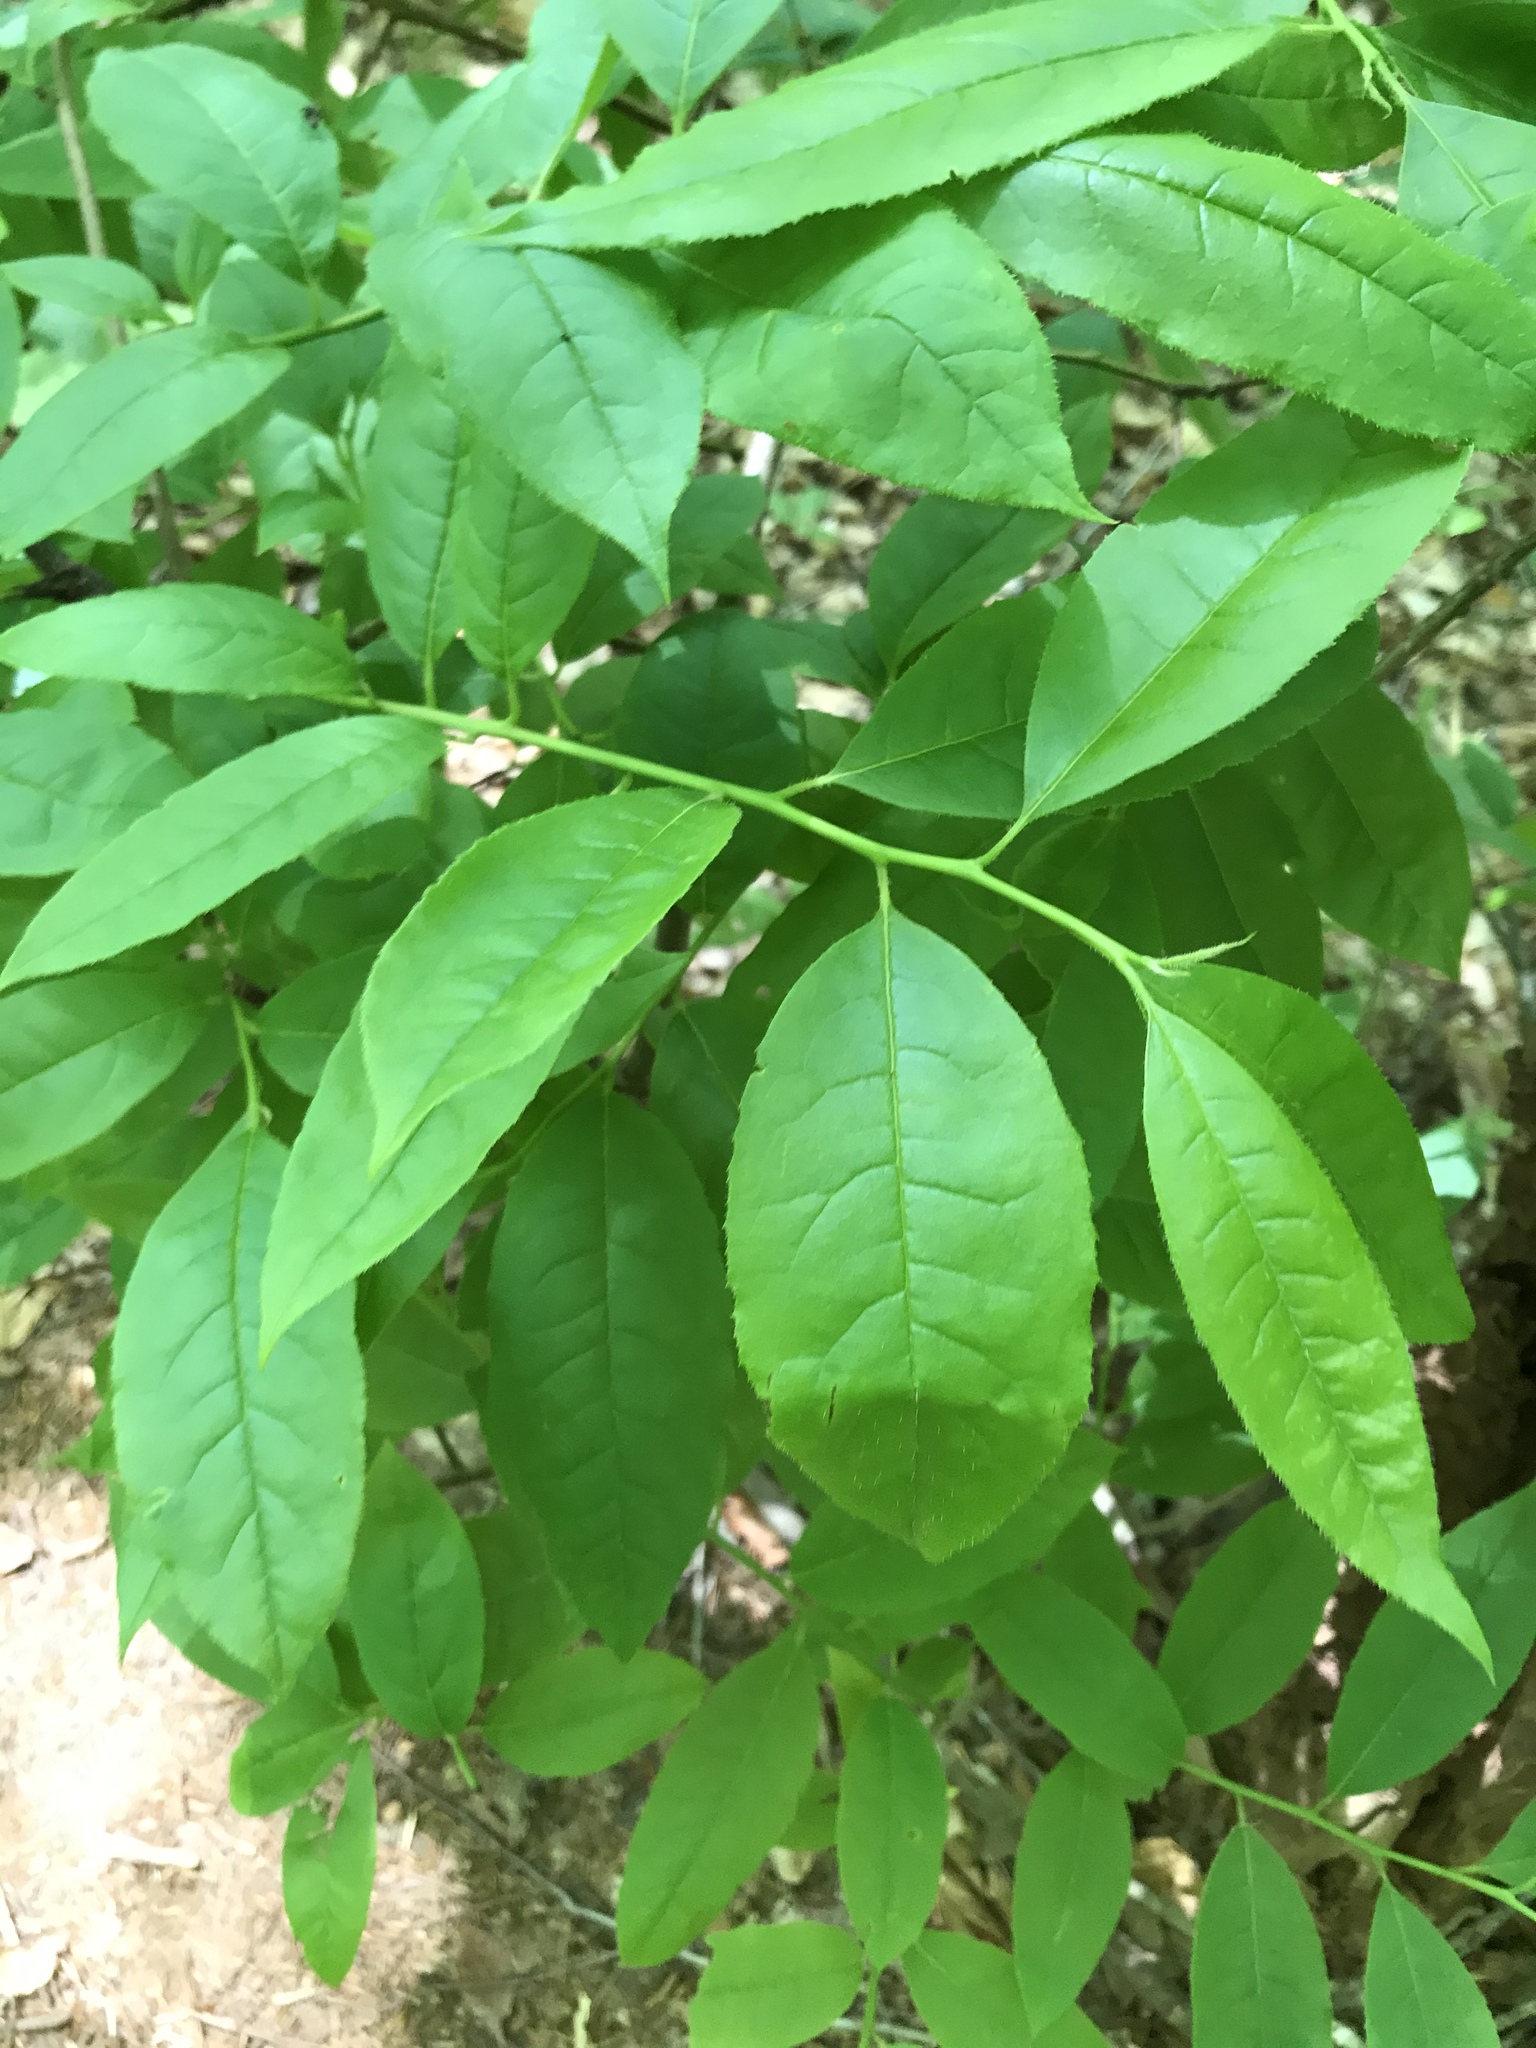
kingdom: Plantae
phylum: Tracheophyta
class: Magnoliopsida
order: Ericales
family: Ericaceae
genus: Oxydendrum
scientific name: Oxydendrum arboreum
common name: Sourwood
